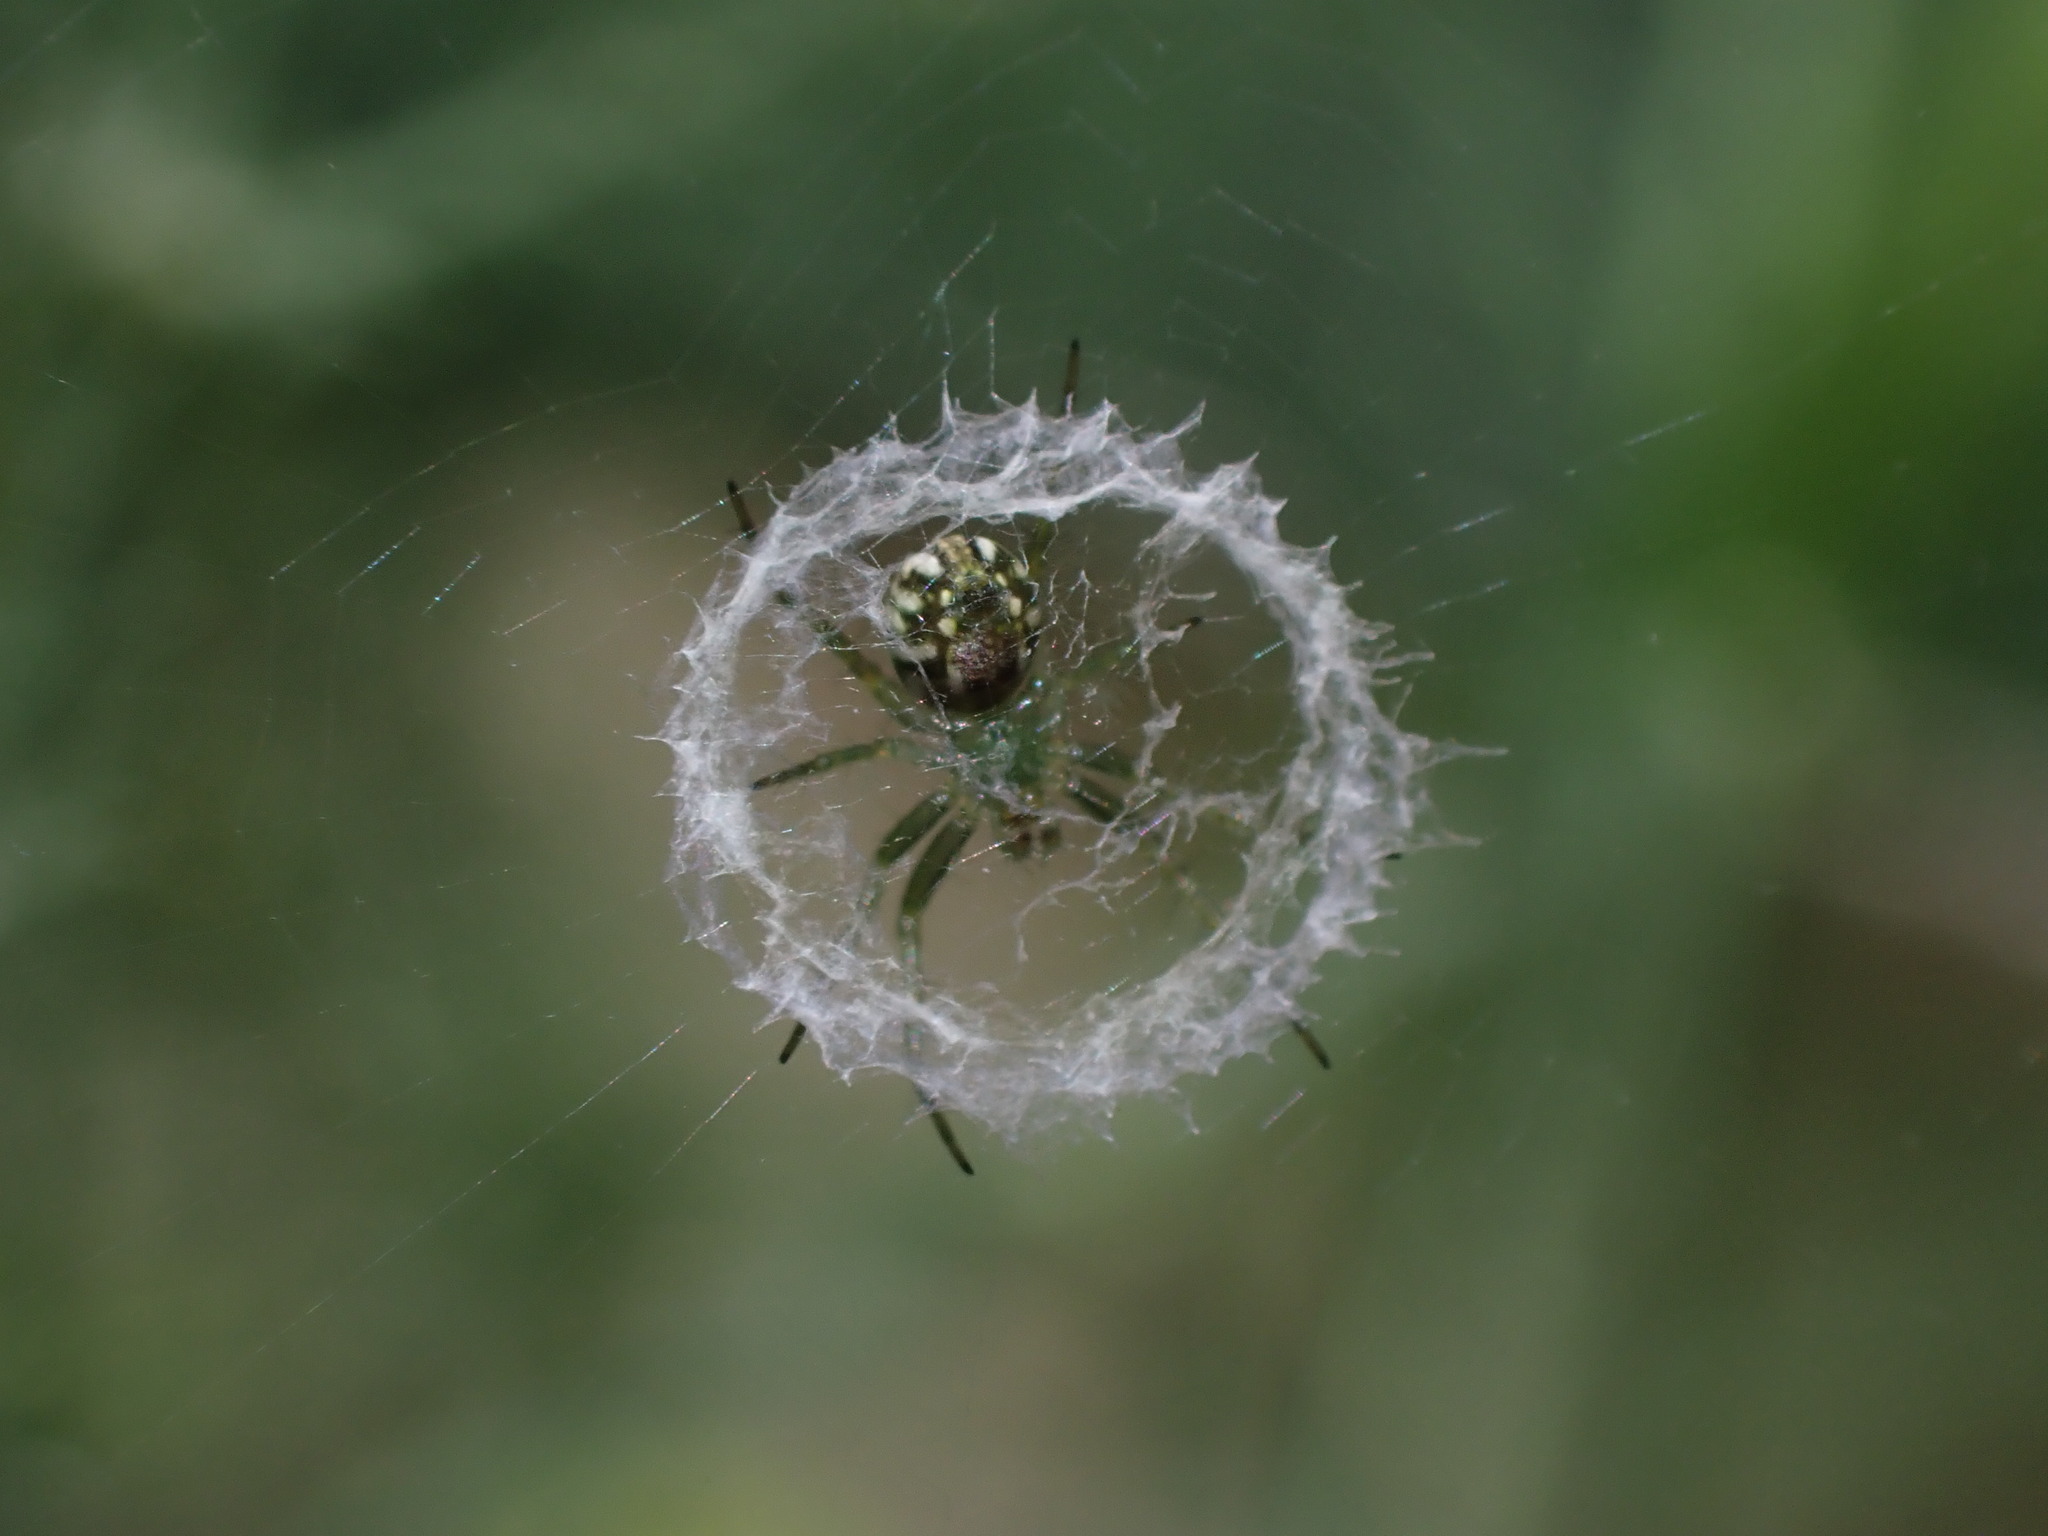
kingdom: Animalia
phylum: Arthropoda
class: Arachnida
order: Araneae
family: Araneidae
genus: Mangora
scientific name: Mangora gibberosa
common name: Lined orbweaver
